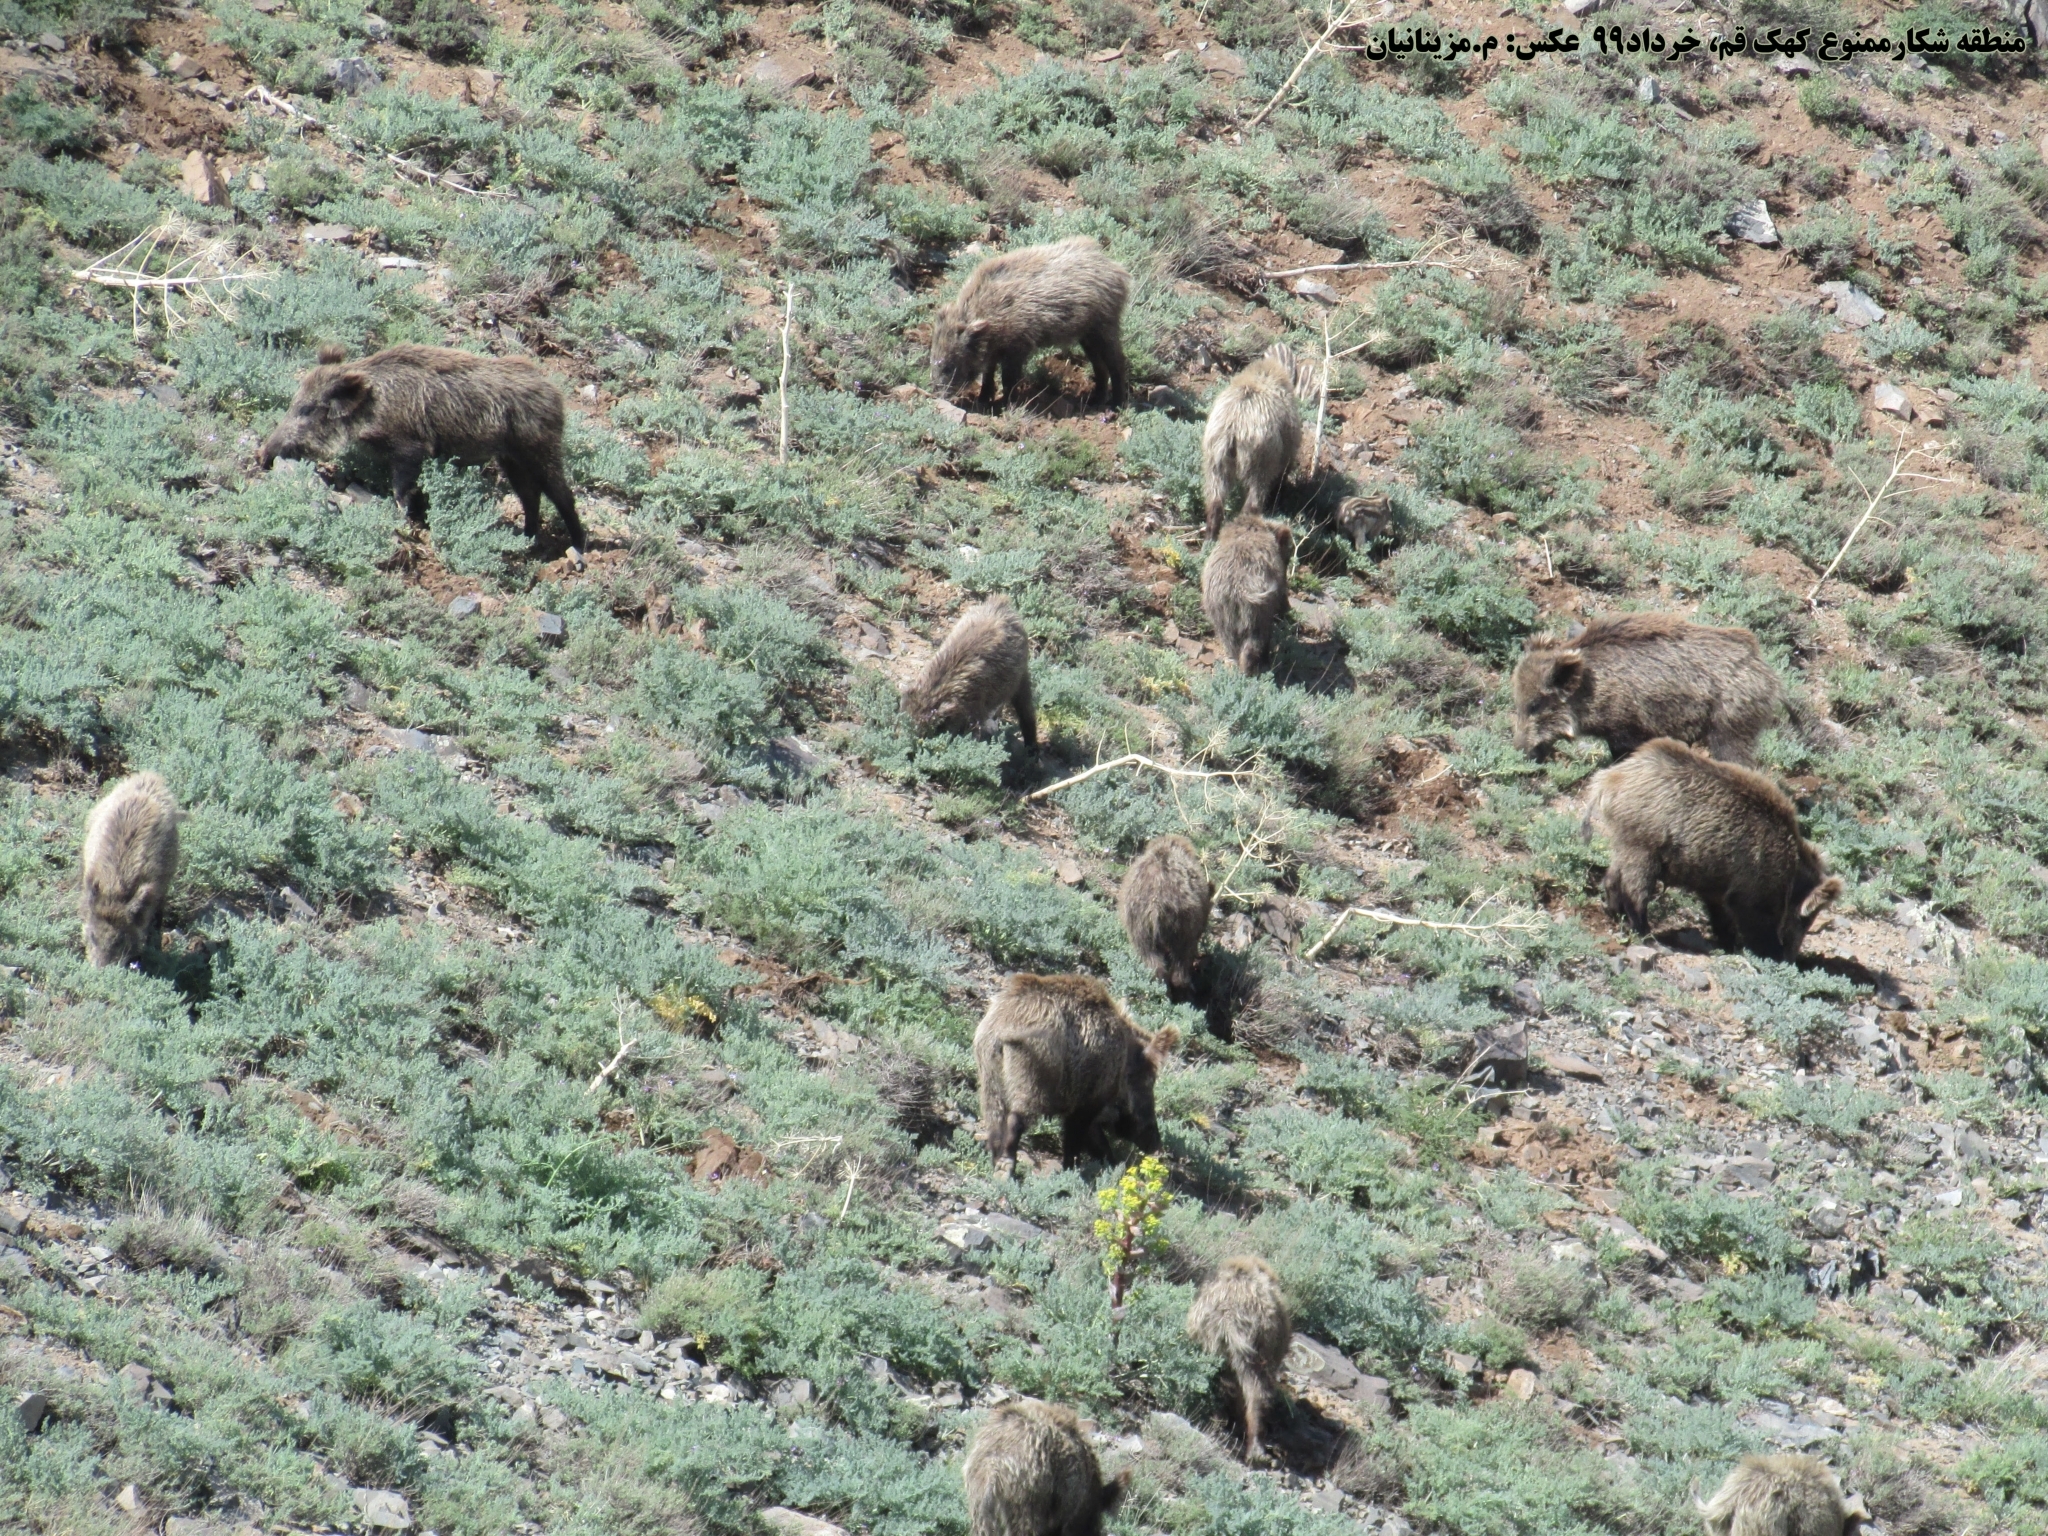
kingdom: Animalia
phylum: Chordata
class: Mammalia
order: Artiodactyla
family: Suidae
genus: Sus
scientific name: Sus scrofa
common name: Wild boar
